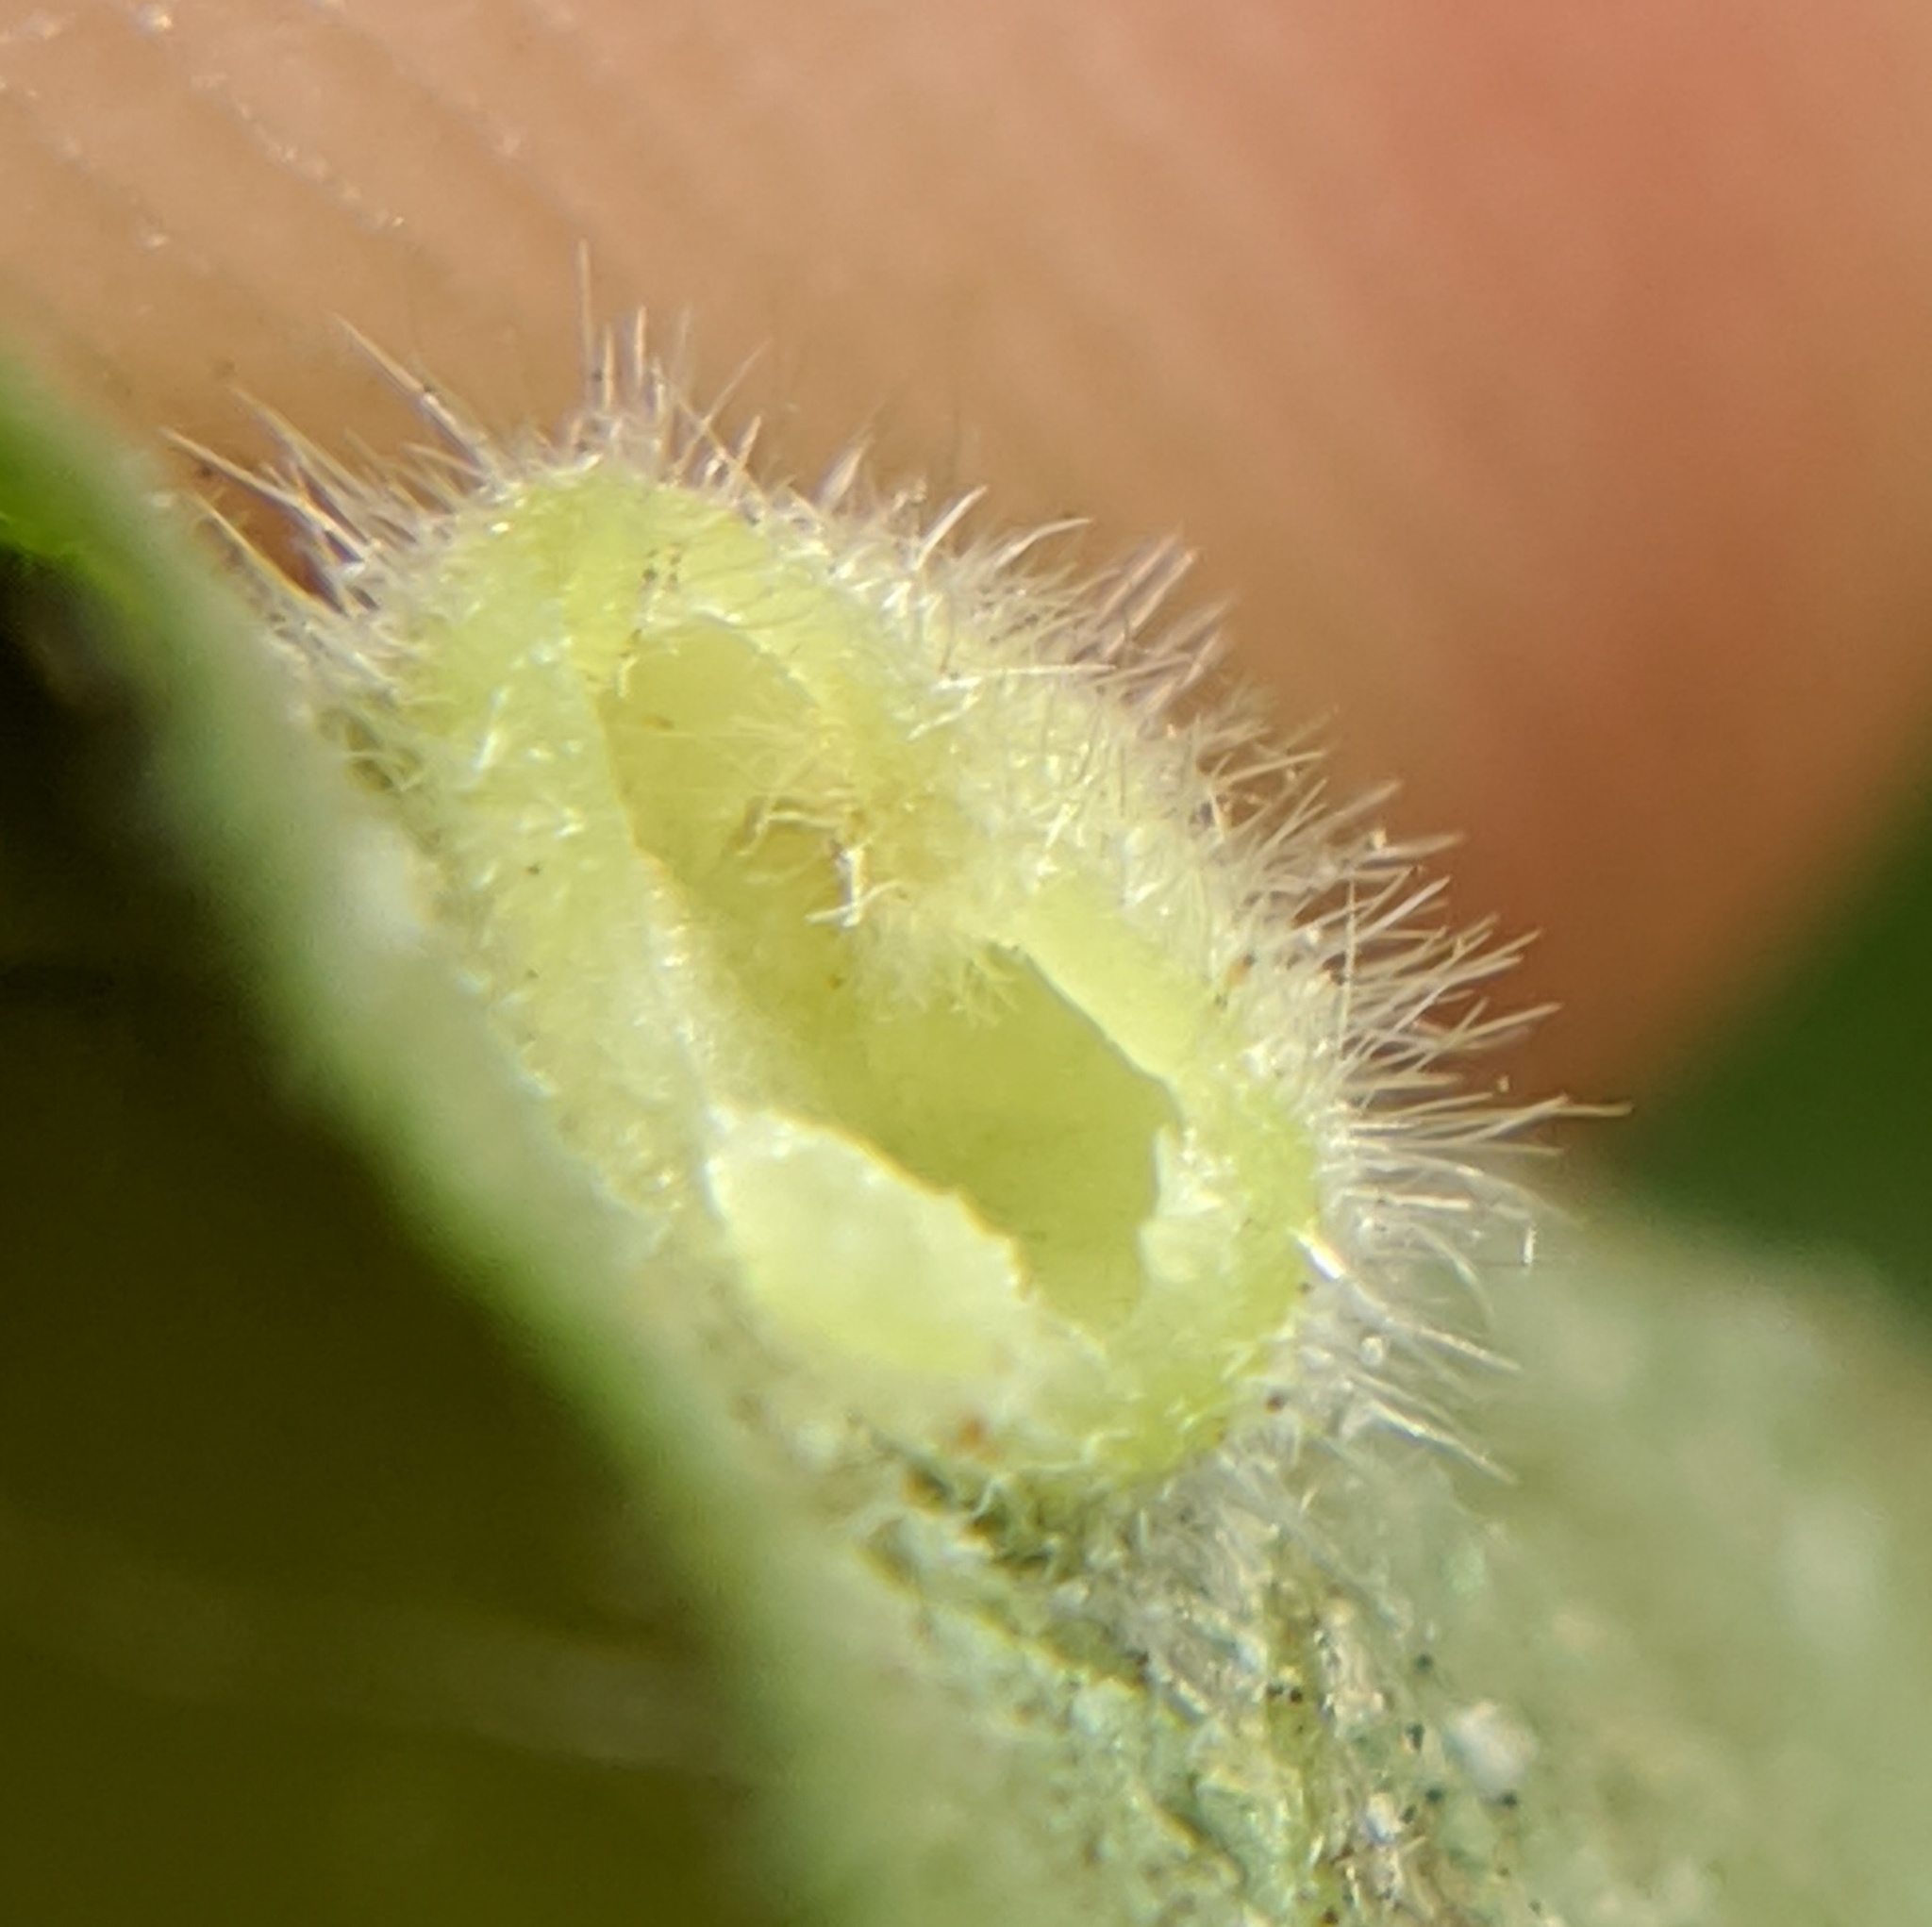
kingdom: Animalia
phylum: Arthropoda
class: Insecta
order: Diptera
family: Cecidomyiidae
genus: Caryomyia
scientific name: Caryomyia thompsoni
